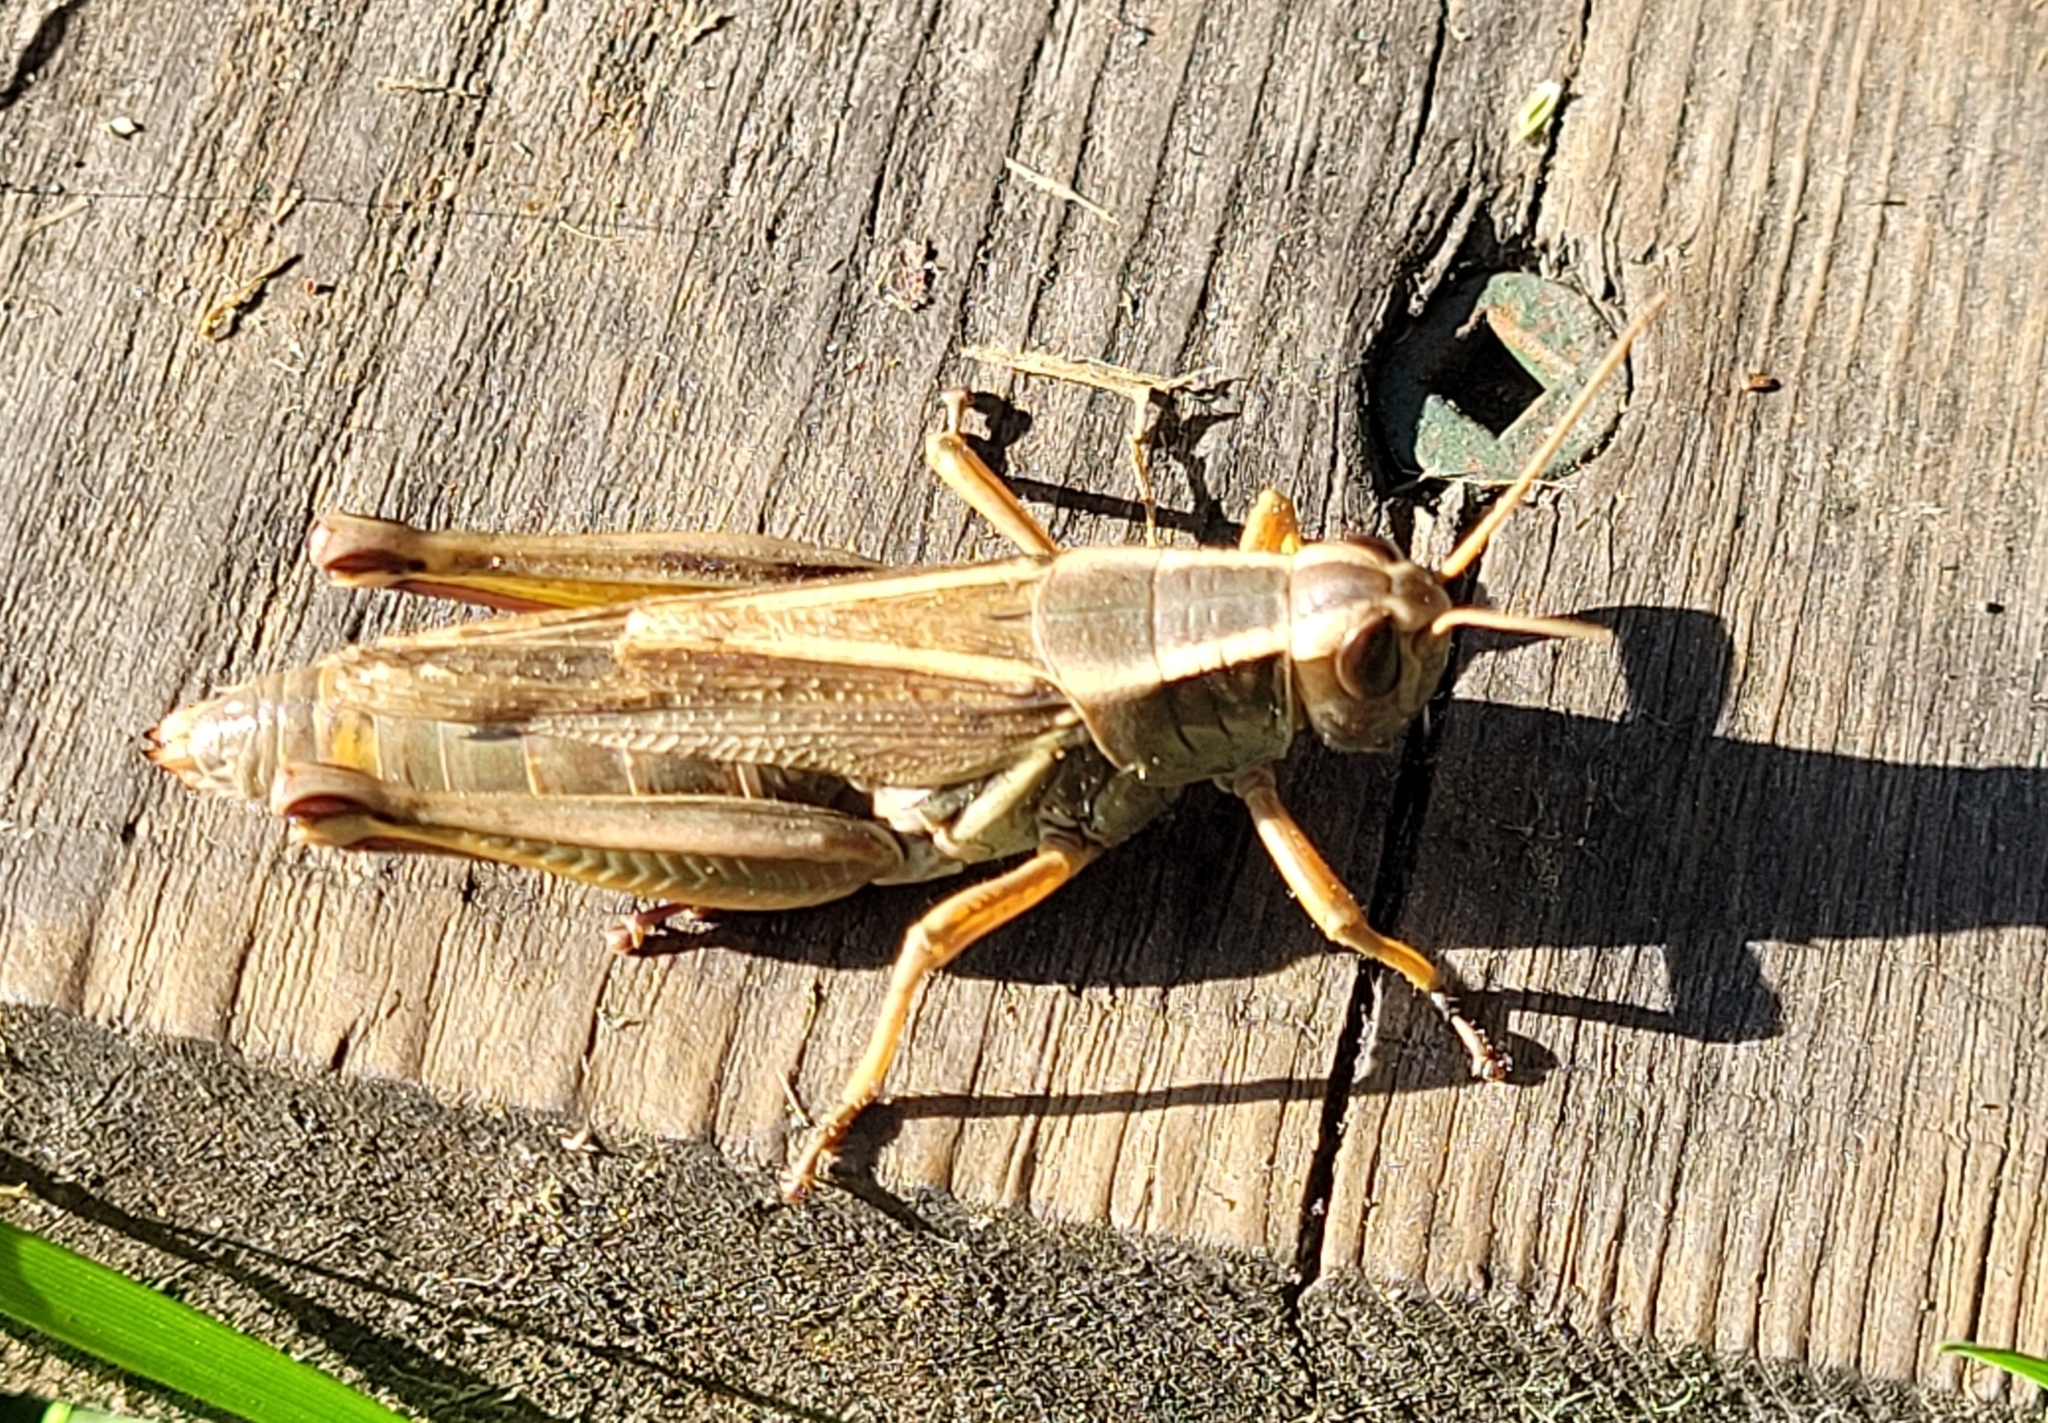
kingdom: Animalia
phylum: Arthropoda
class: Insecta
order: Orthoptera
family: Acrididae
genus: Melanoplus
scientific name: Melanoplus bivittatus
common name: Two-striped grasshopper
